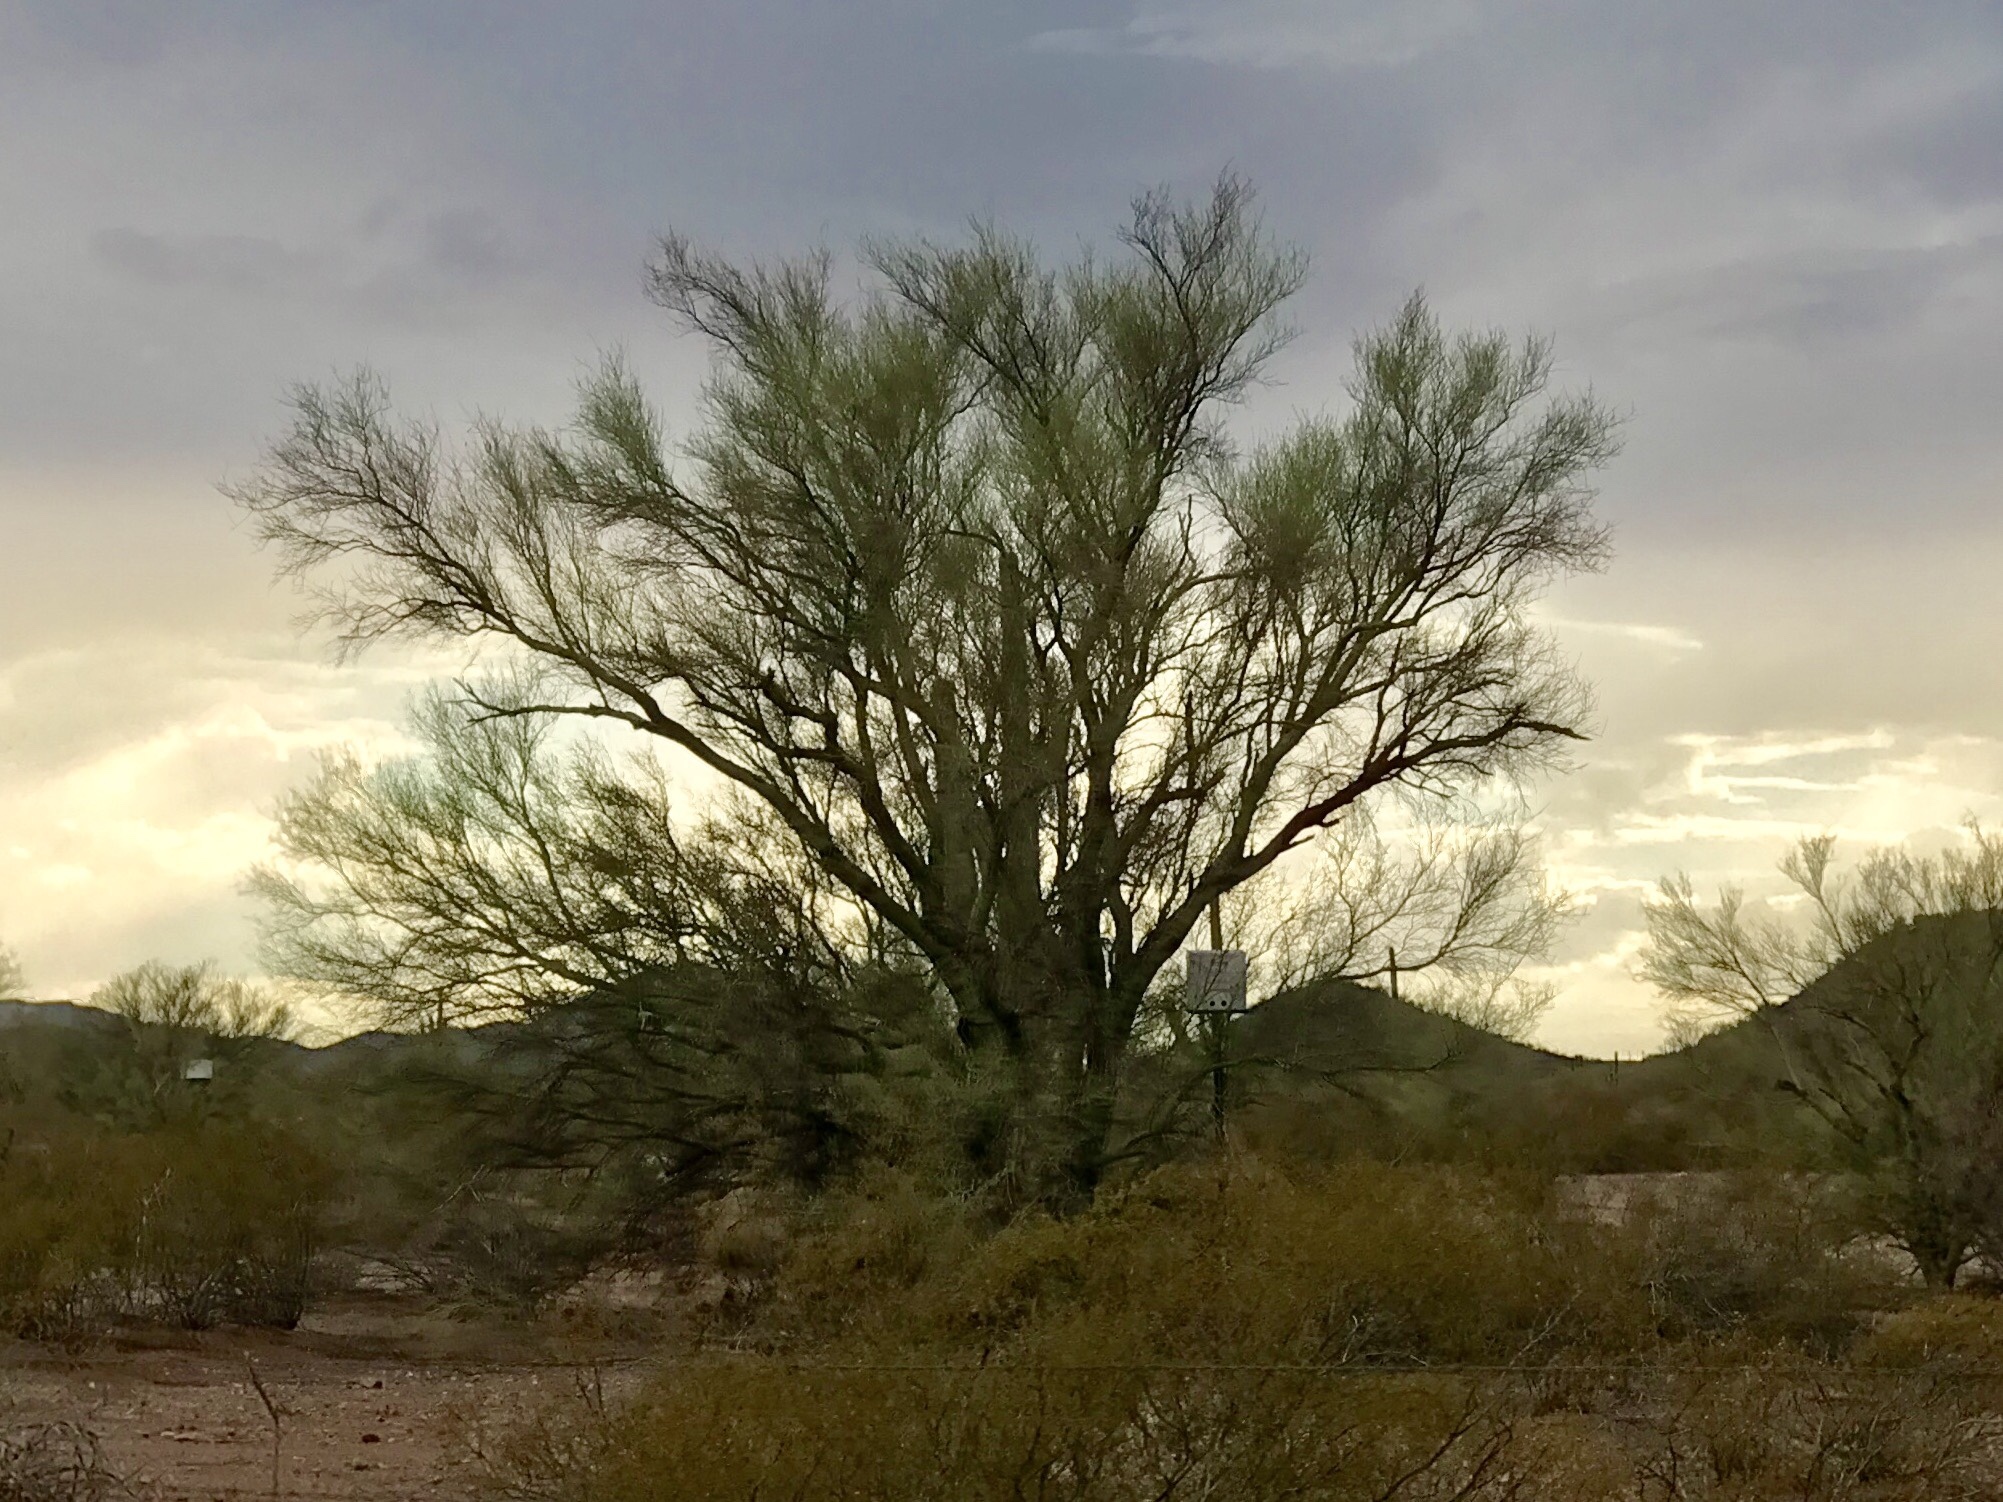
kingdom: Plantae
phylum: Tracheophyta
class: Magnoliopsida
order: Fabales
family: Fabaceae
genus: Parkinsonia
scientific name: Parkinsonia florida
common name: Blue paloverde
